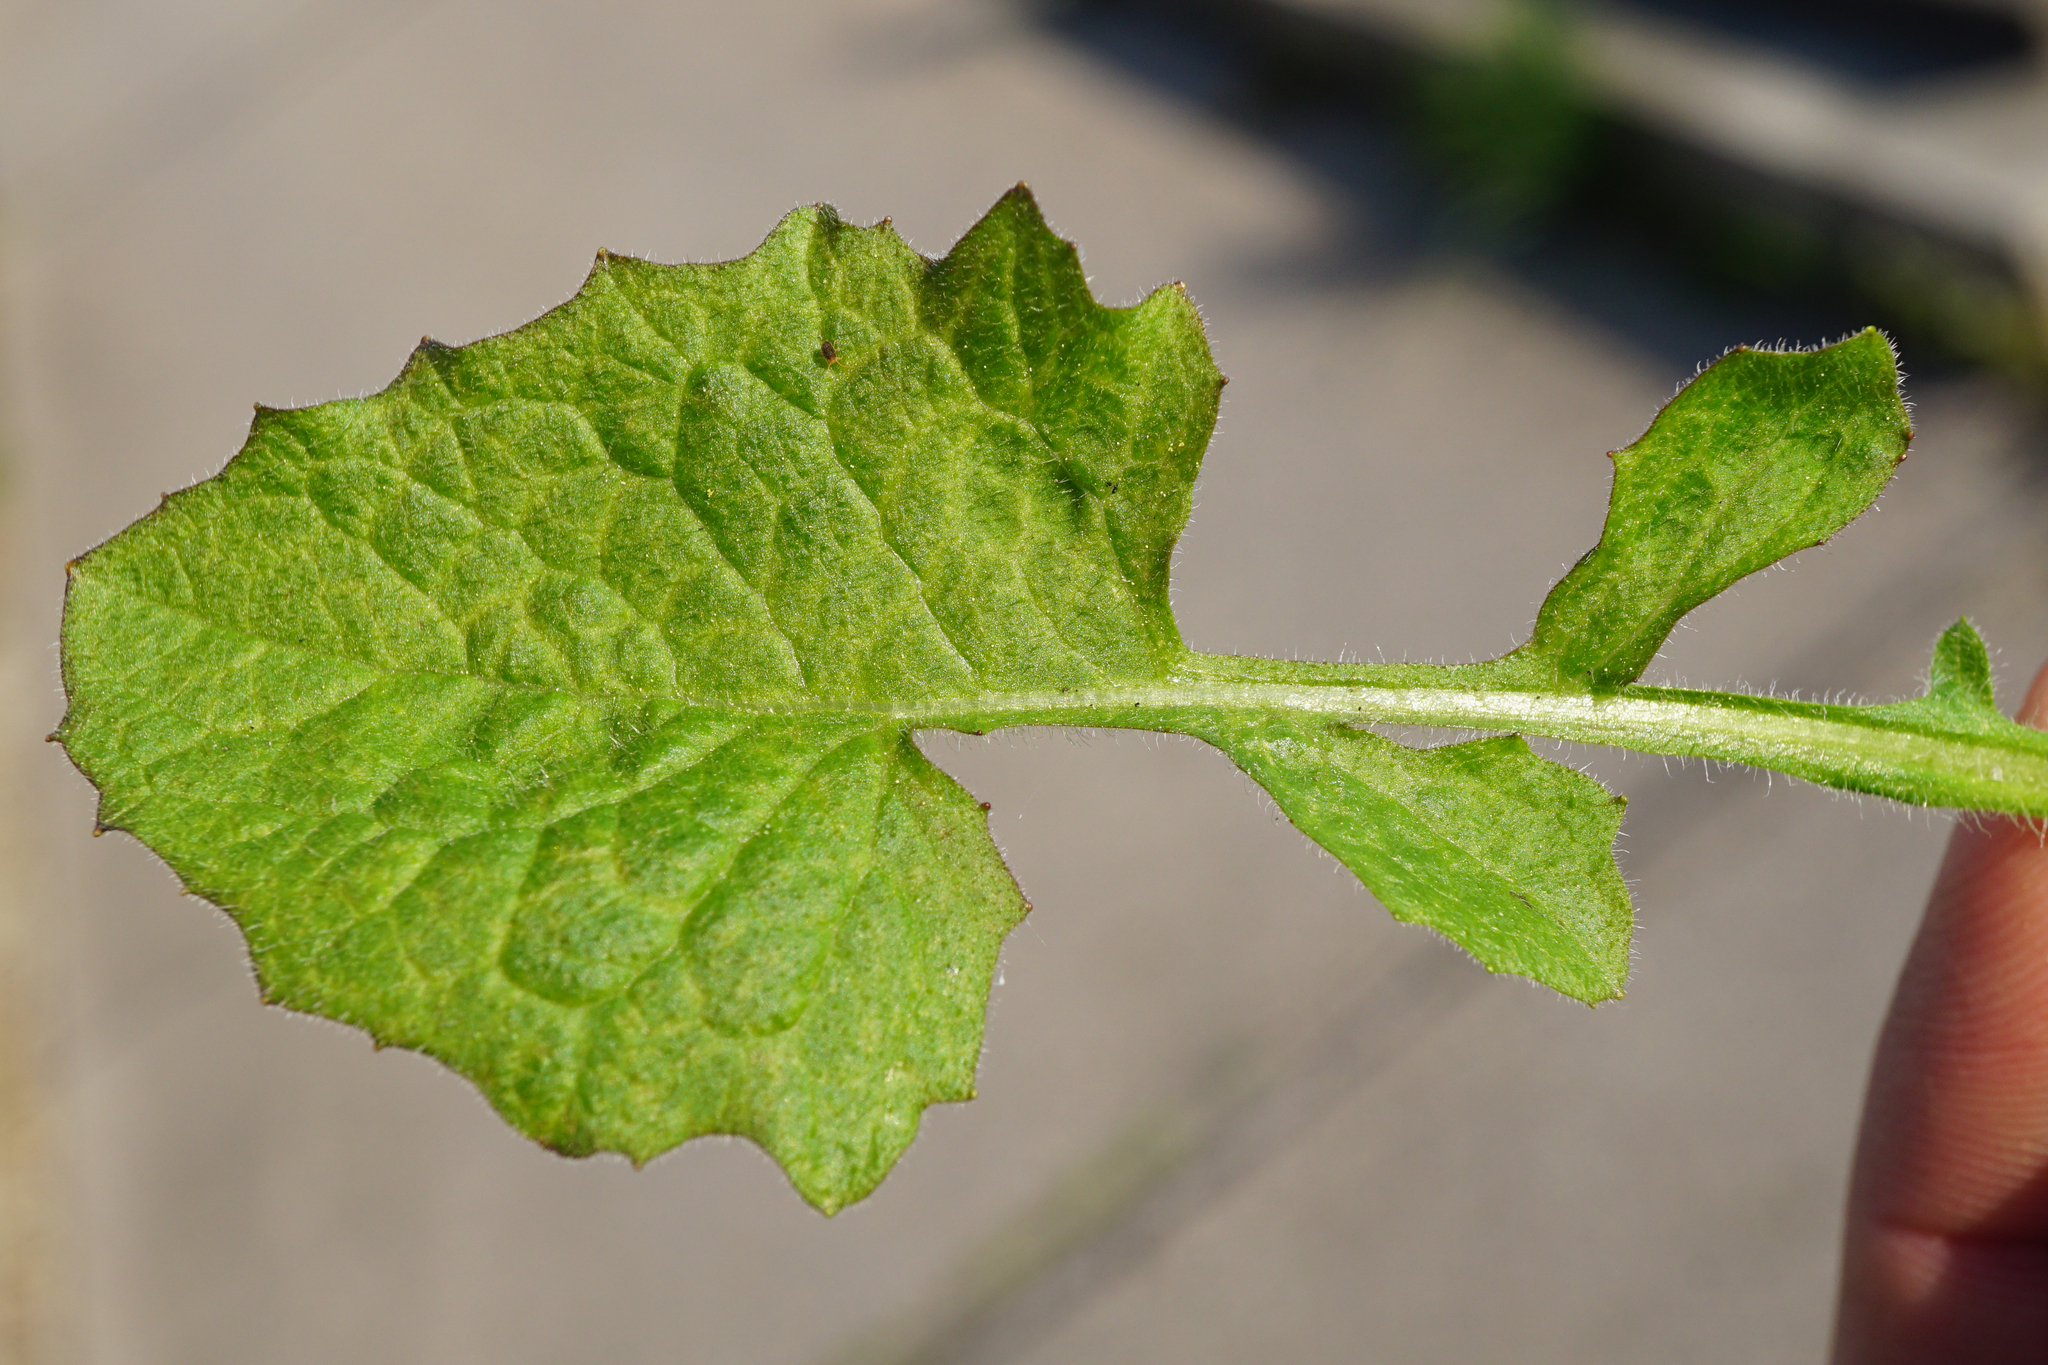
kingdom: Plantae
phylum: Tracheophyta
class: Magnoliopsida
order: Asterales
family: Asteraceae
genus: Lapsana
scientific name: Lapsana communis
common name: Nipplewort
